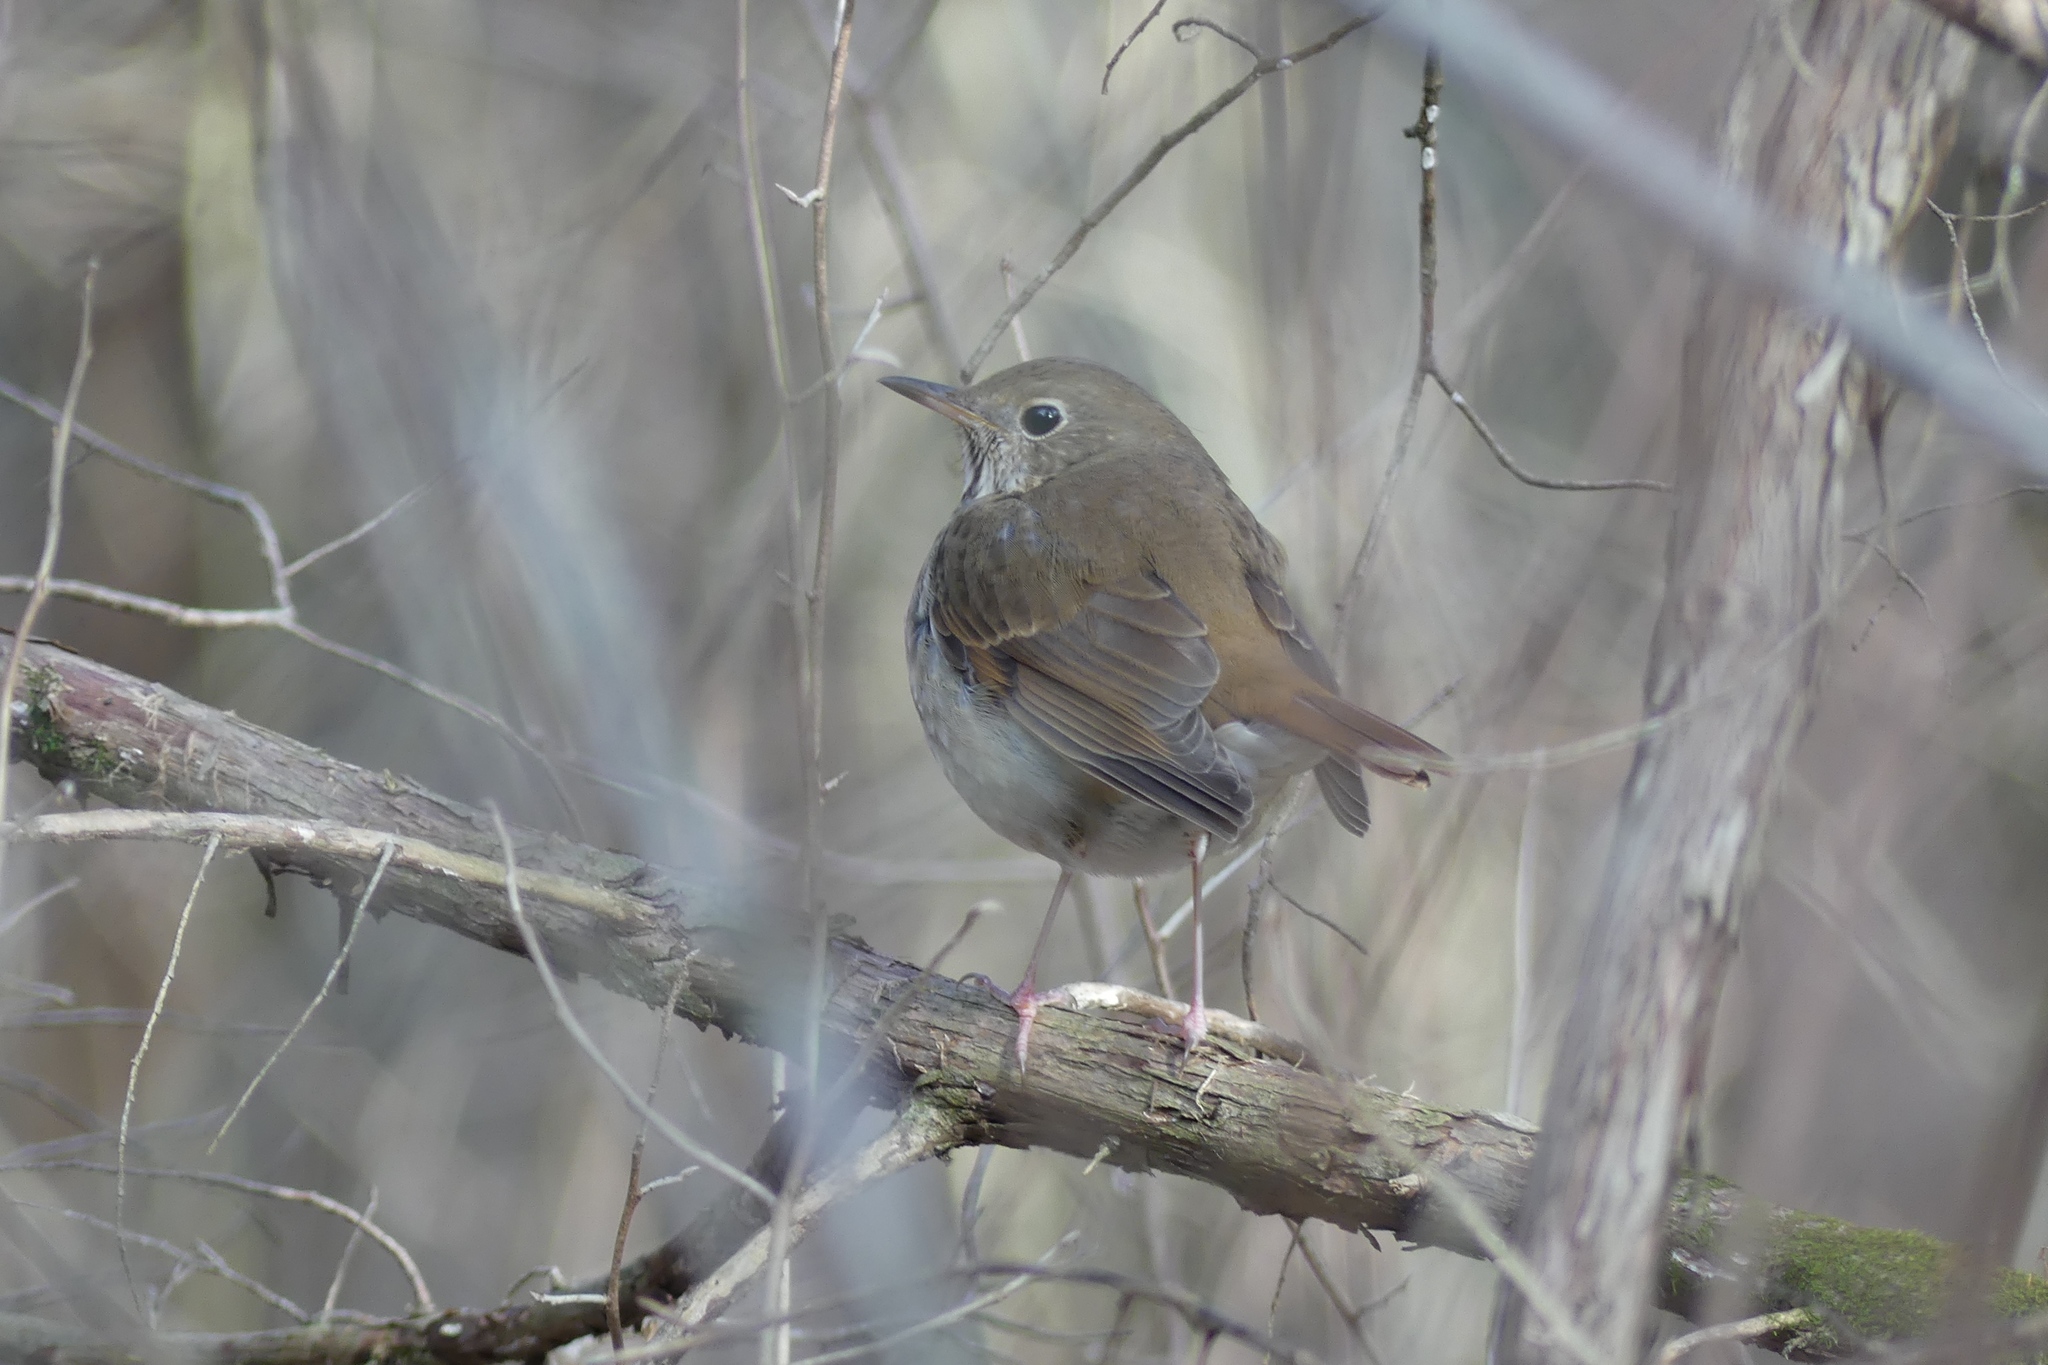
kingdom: Animalia
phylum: Chordata
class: Aves
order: Passeriformes
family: Turdidae
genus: Catharus
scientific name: Catharus guttatus
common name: Hermit thrush
